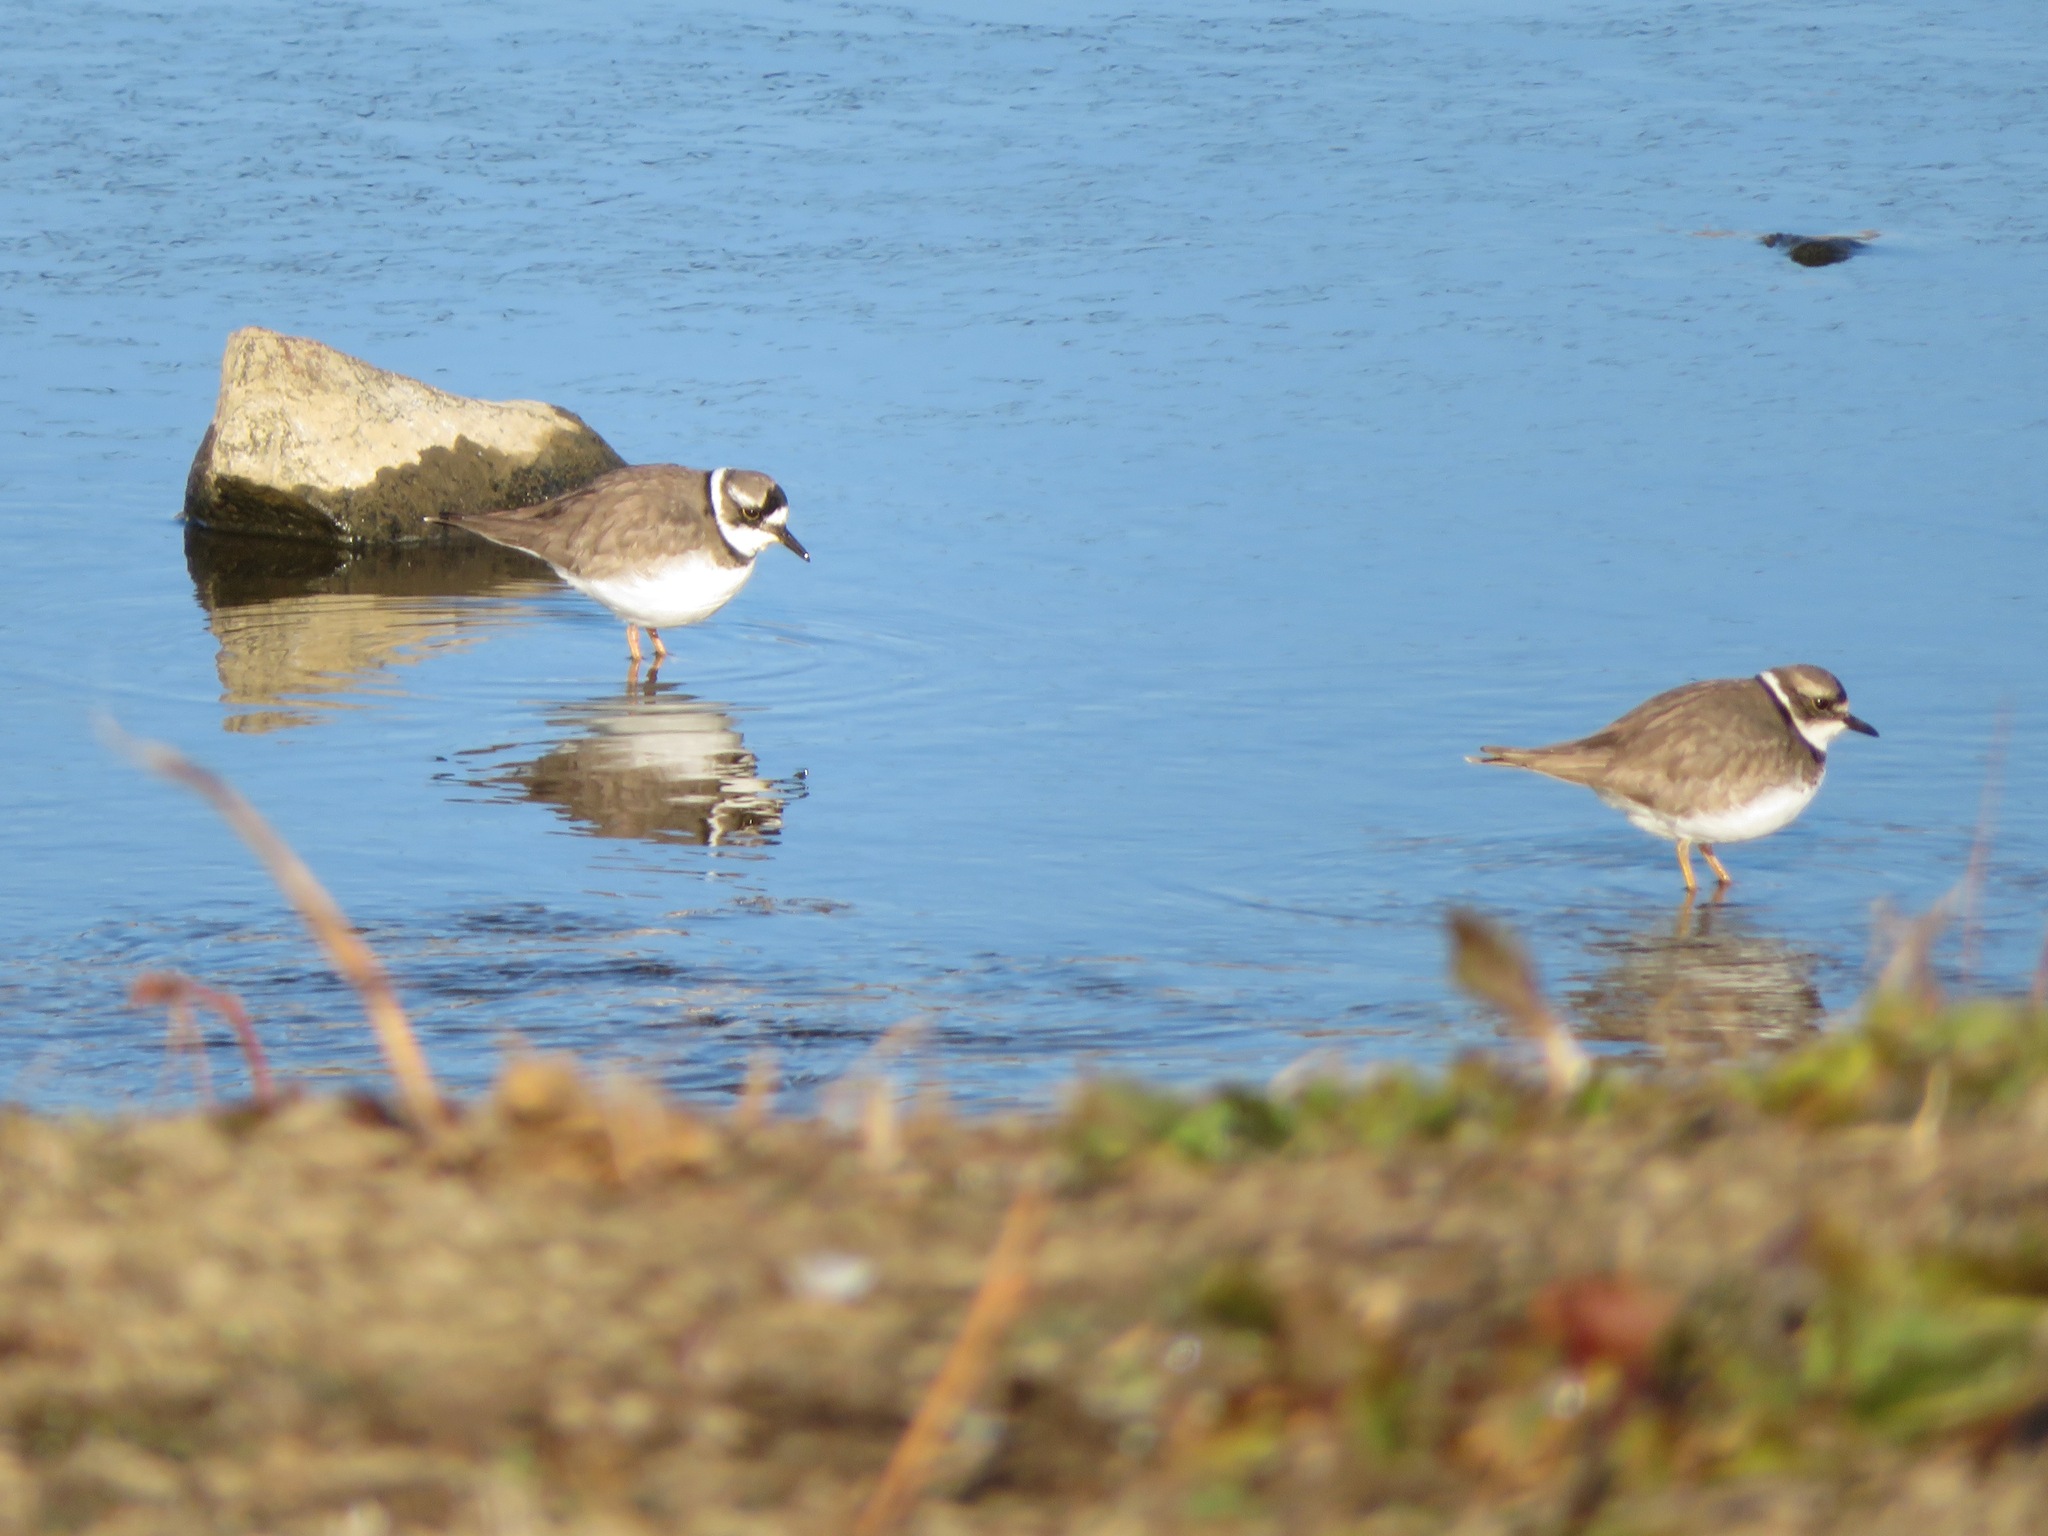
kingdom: Animalia
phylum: Chordata
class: Aves
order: Charadriiformes
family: Charadriidae
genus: Charadrius
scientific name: Charadrius placidus
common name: Long-billed plover
